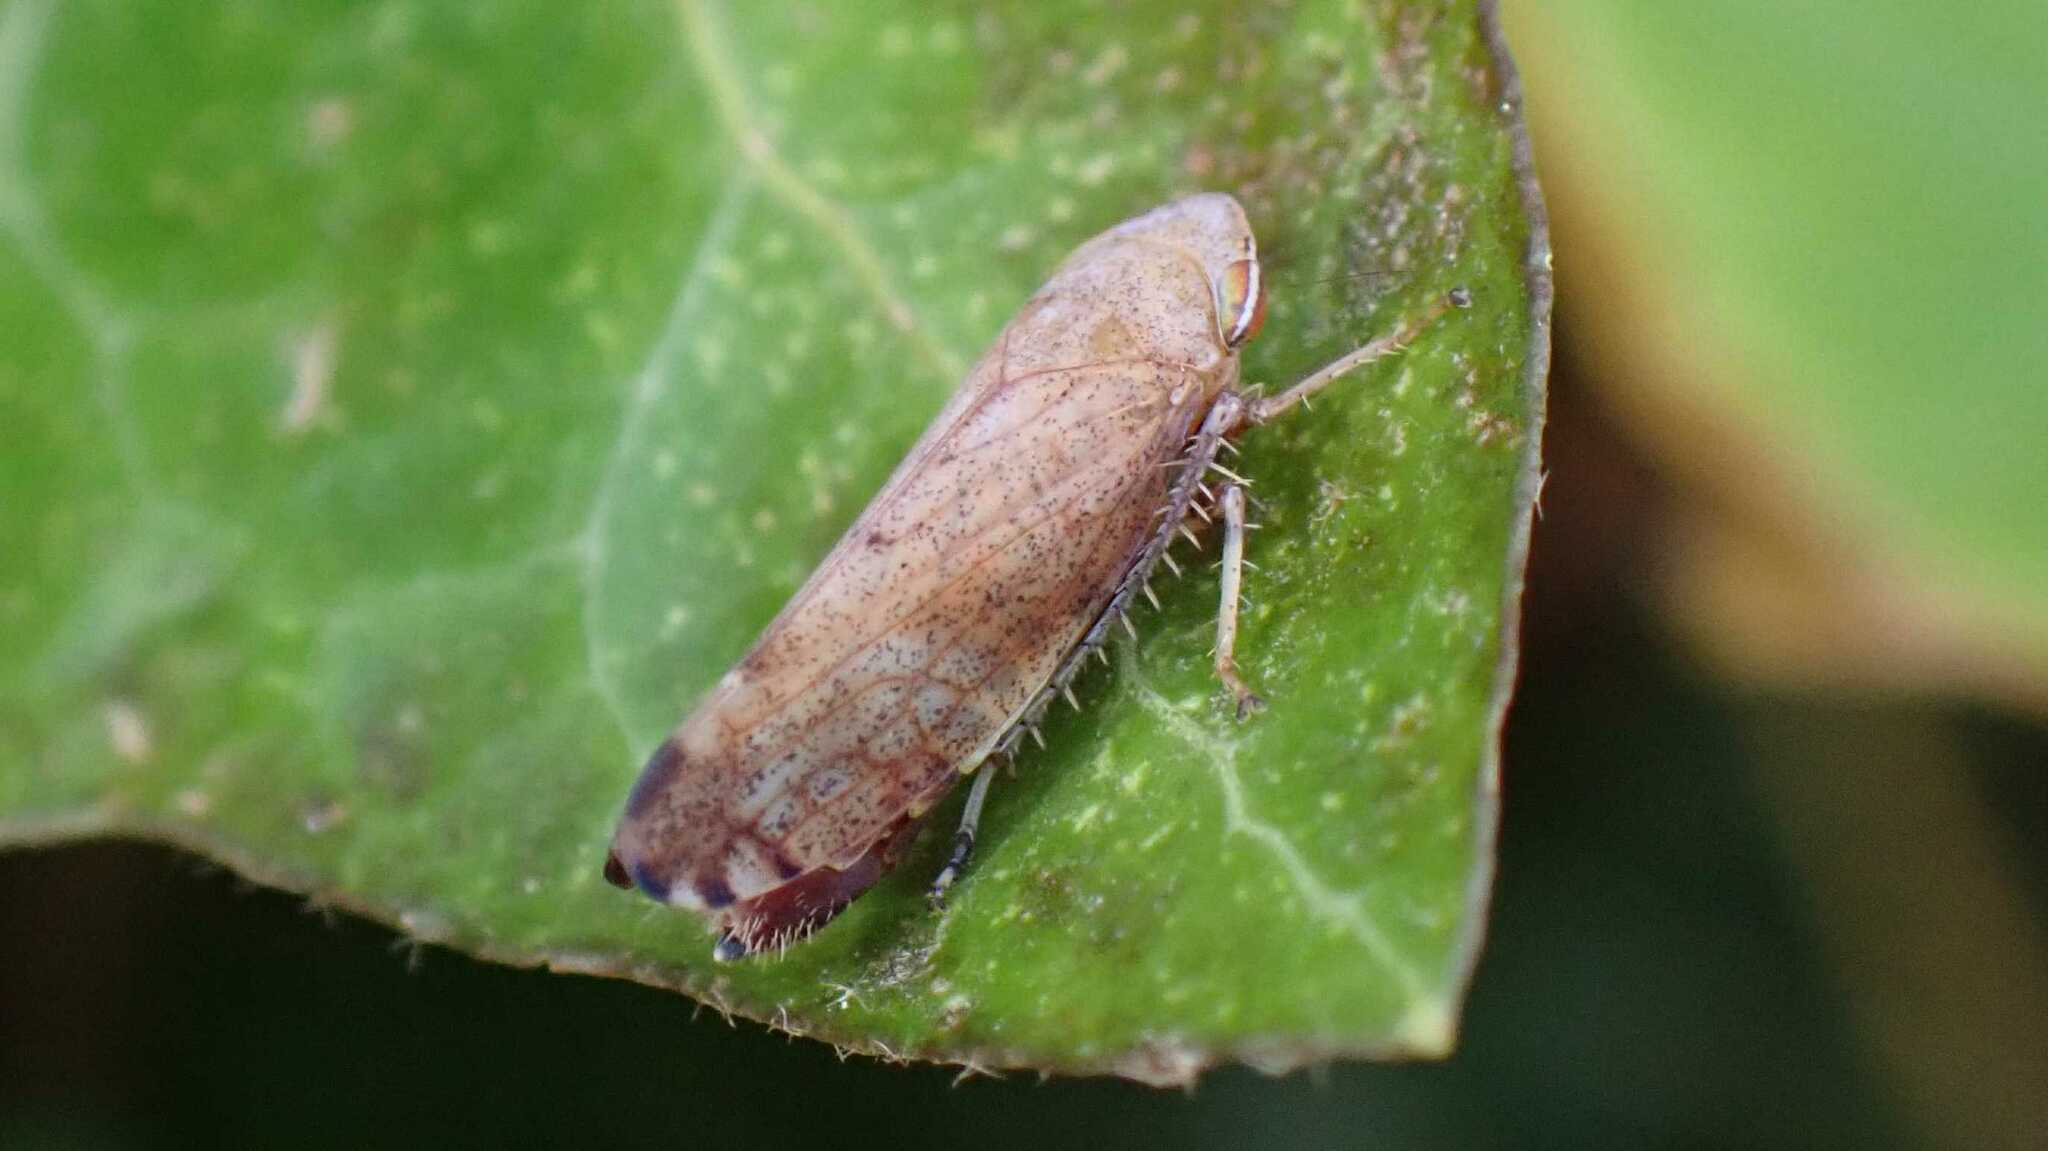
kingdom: Animalia
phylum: Arthropoda
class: Insecta
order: Hemiptera
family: Cicadellidae
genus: Fieberiella
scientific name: Fieberiella
